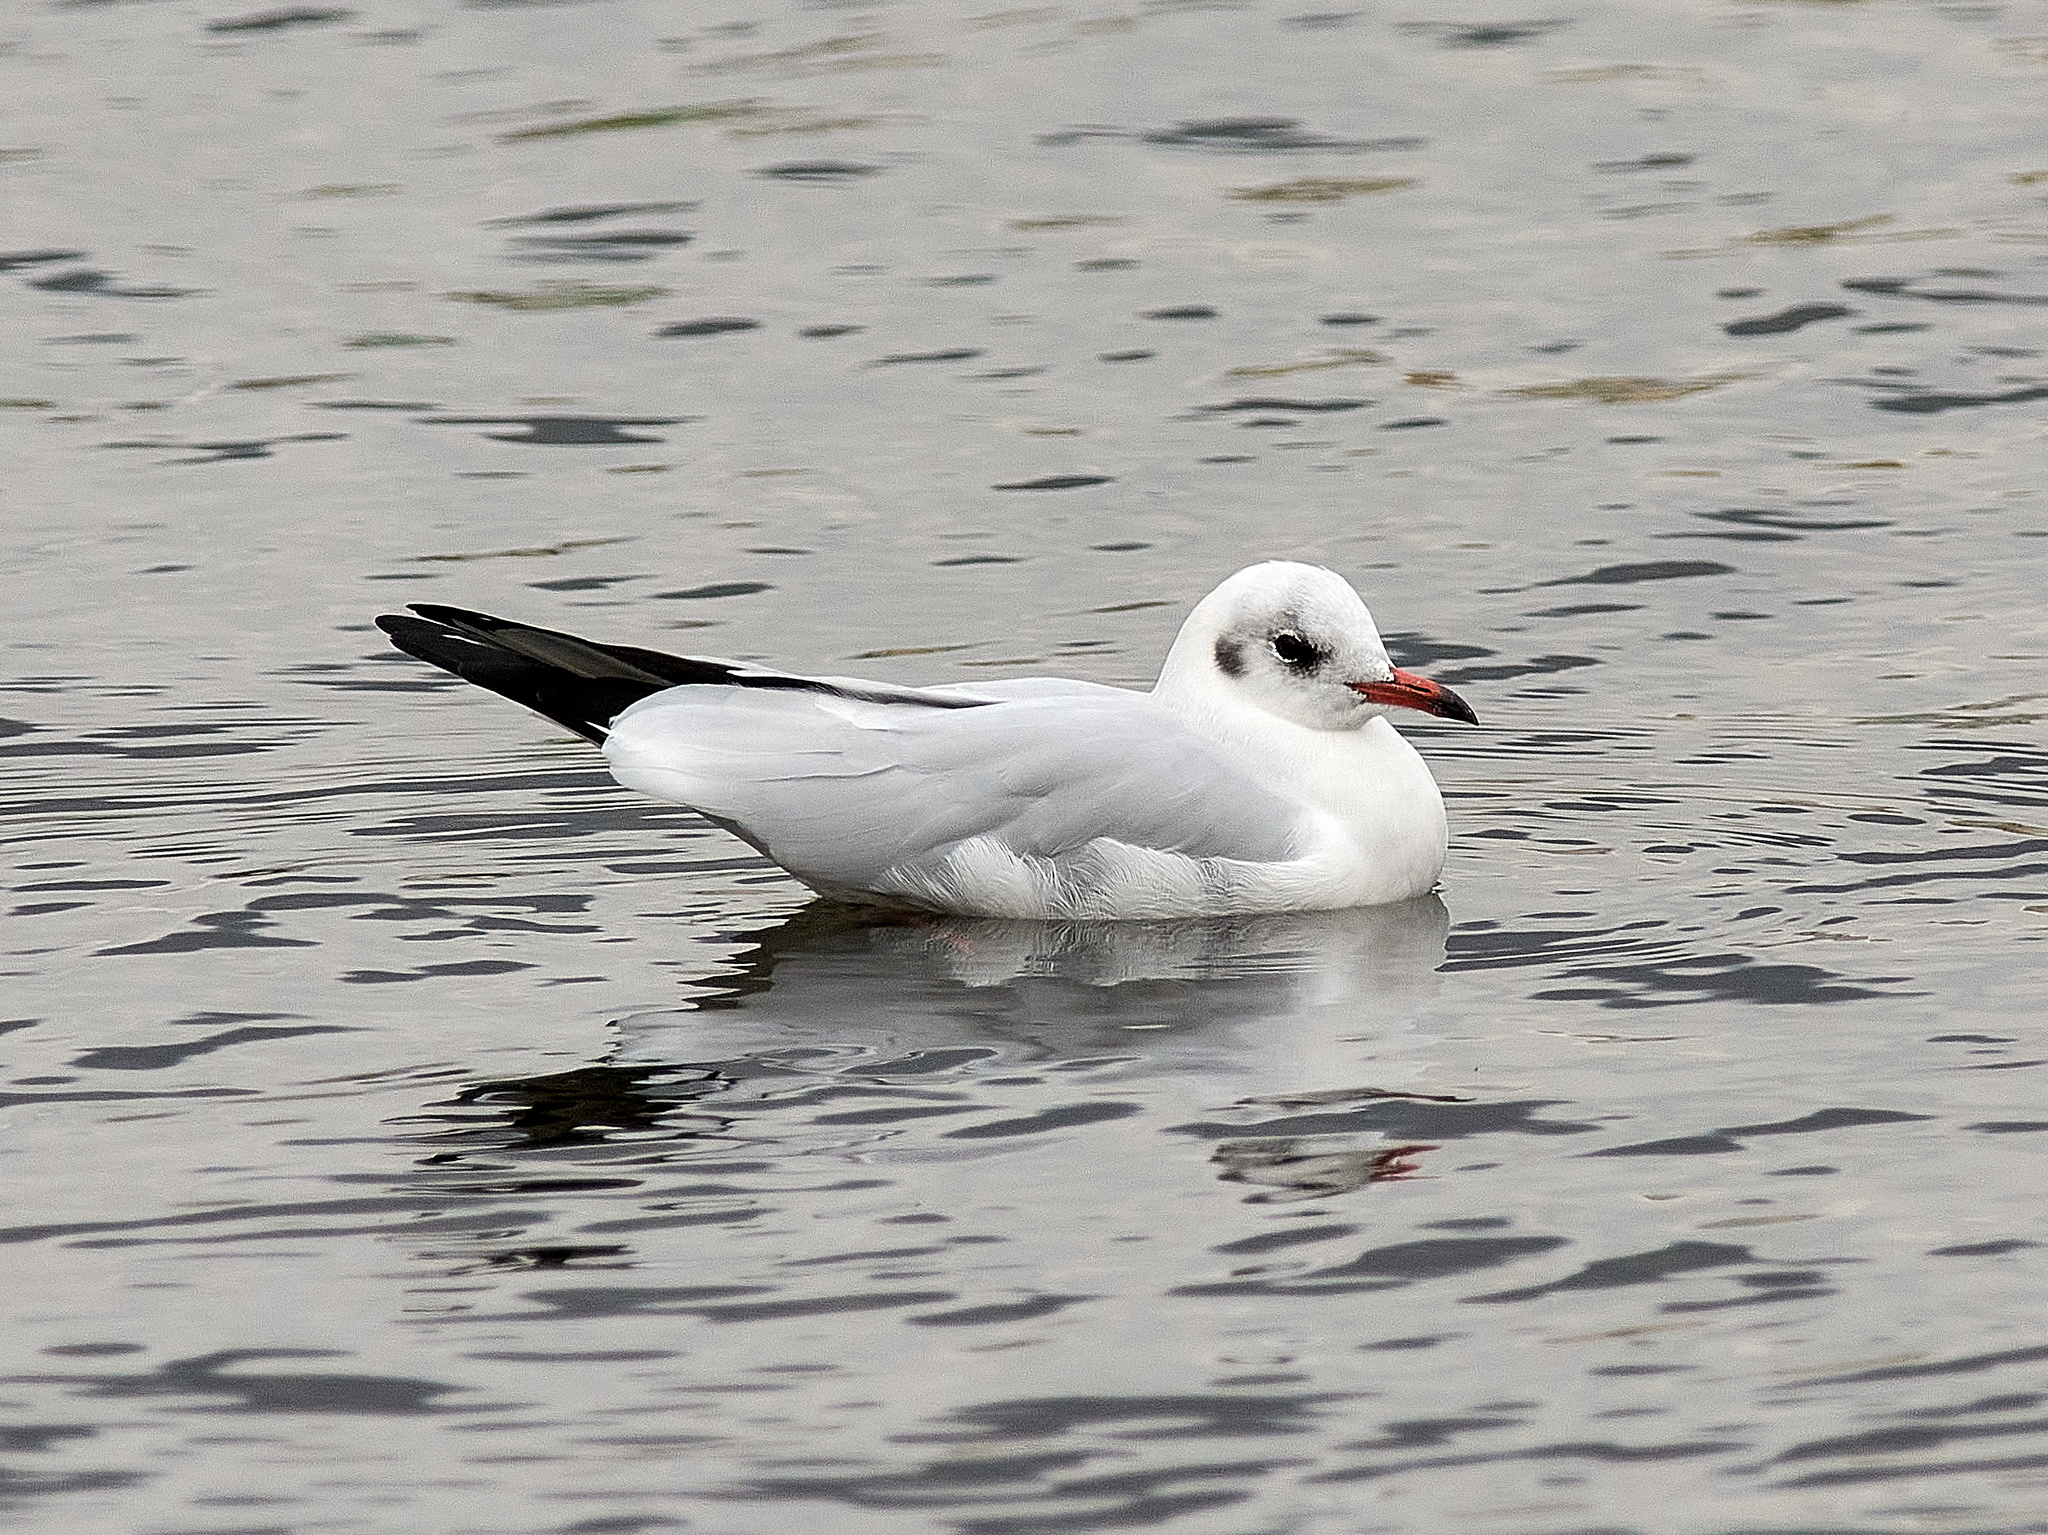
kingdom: Animalia
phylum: Chordata
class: Aves
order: Charadriiformes
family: Laridae
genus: Chroicocephalus
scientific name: Chroicocephalus ridibundus
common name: Black-headed gull
